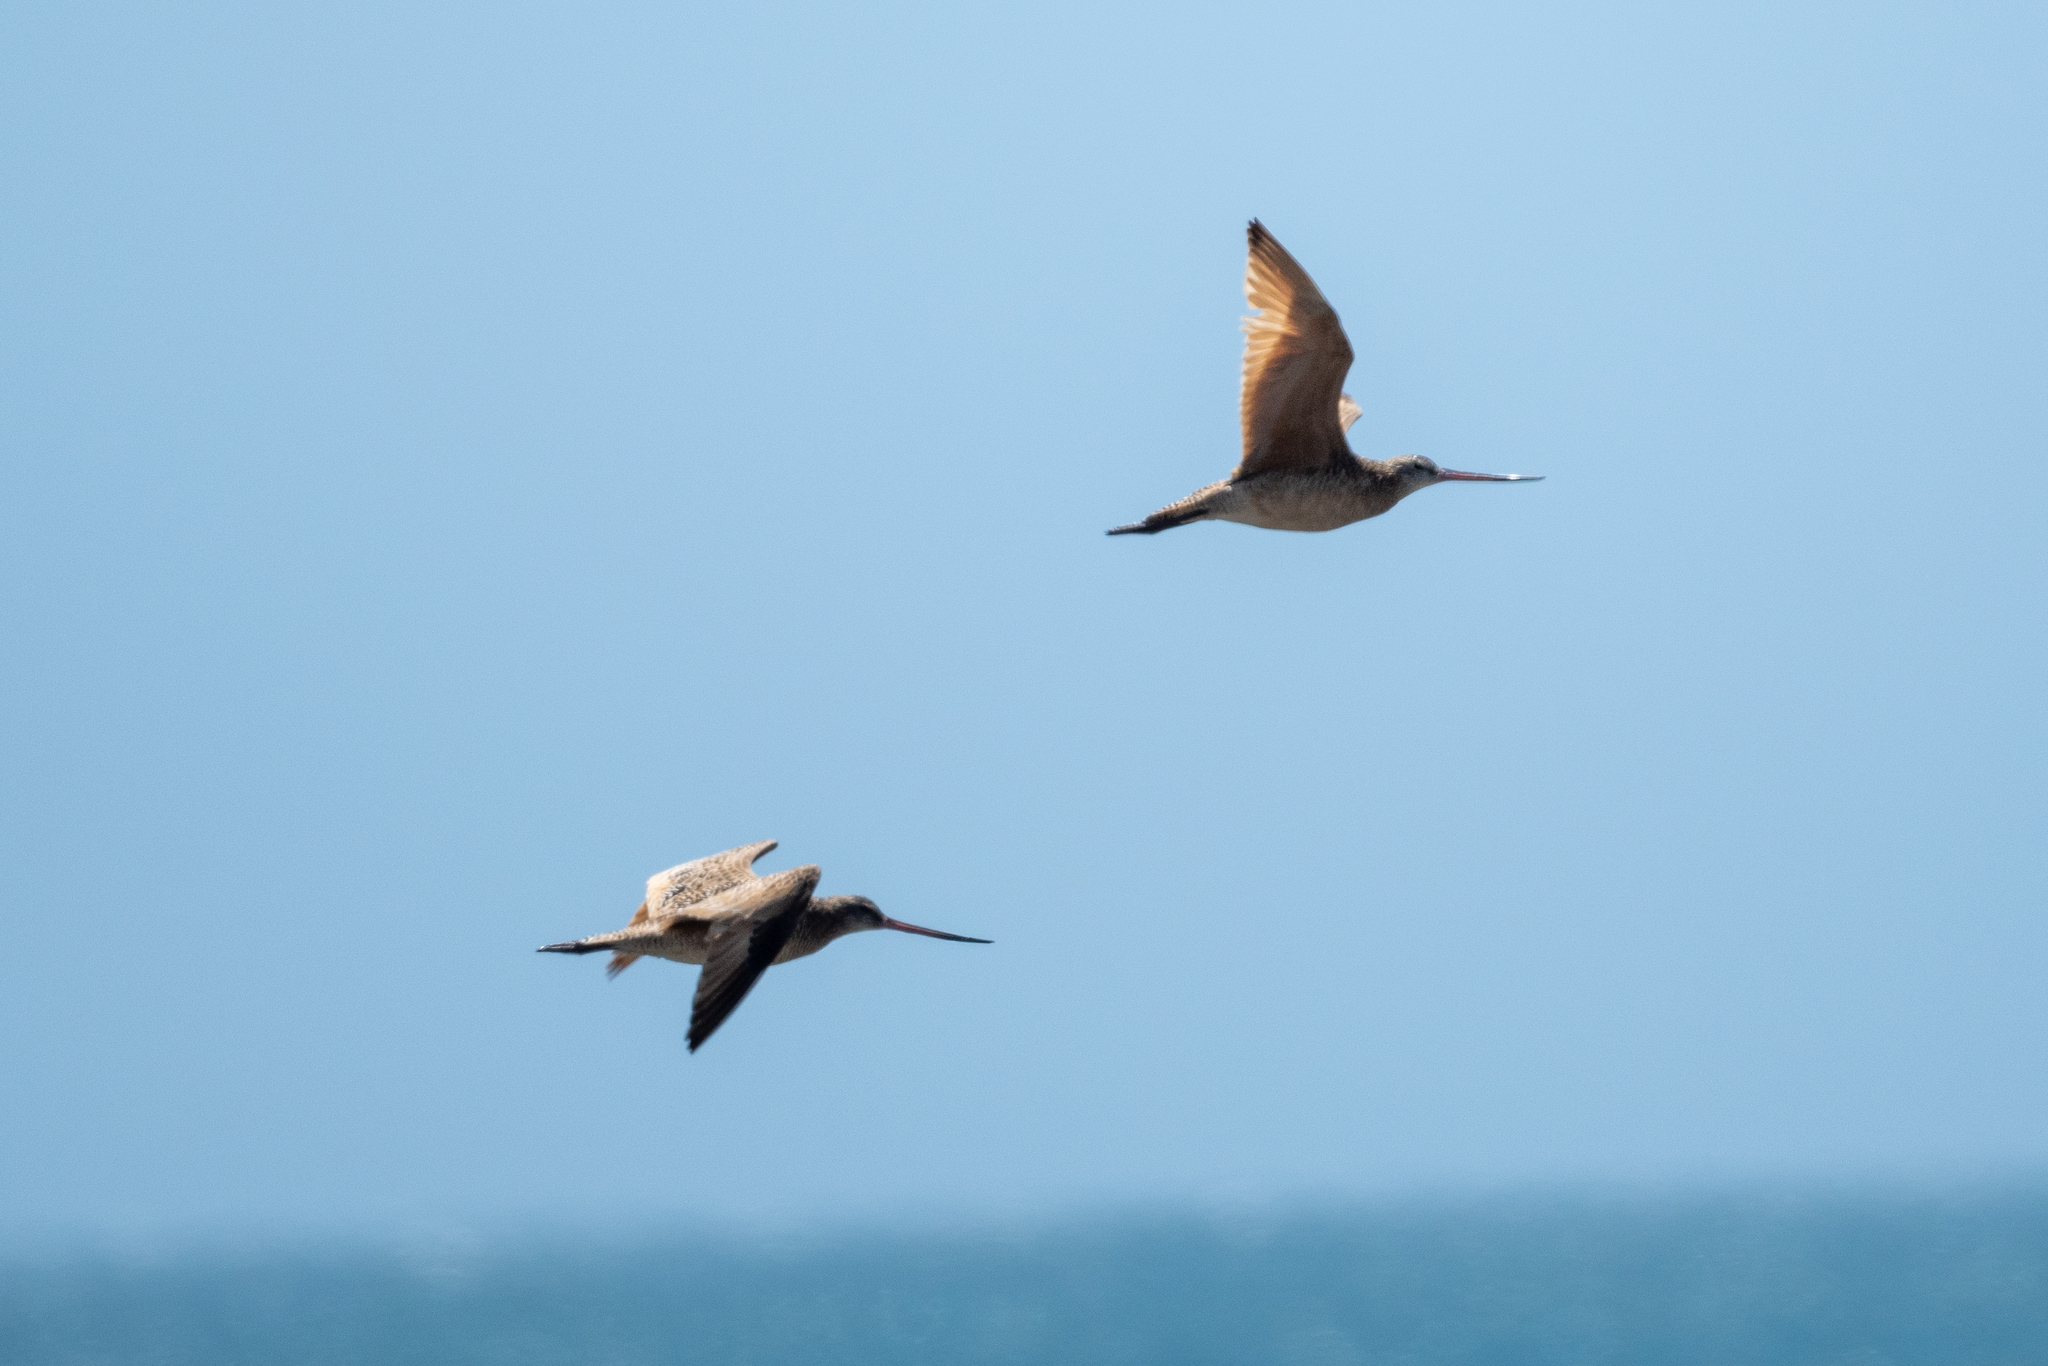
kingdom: Animalia
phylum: Chordata
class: Aves
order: Charadriiformes
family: Scolopacidae
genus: Limosa
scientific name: Limosa fedoa
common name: Marbled godwit
